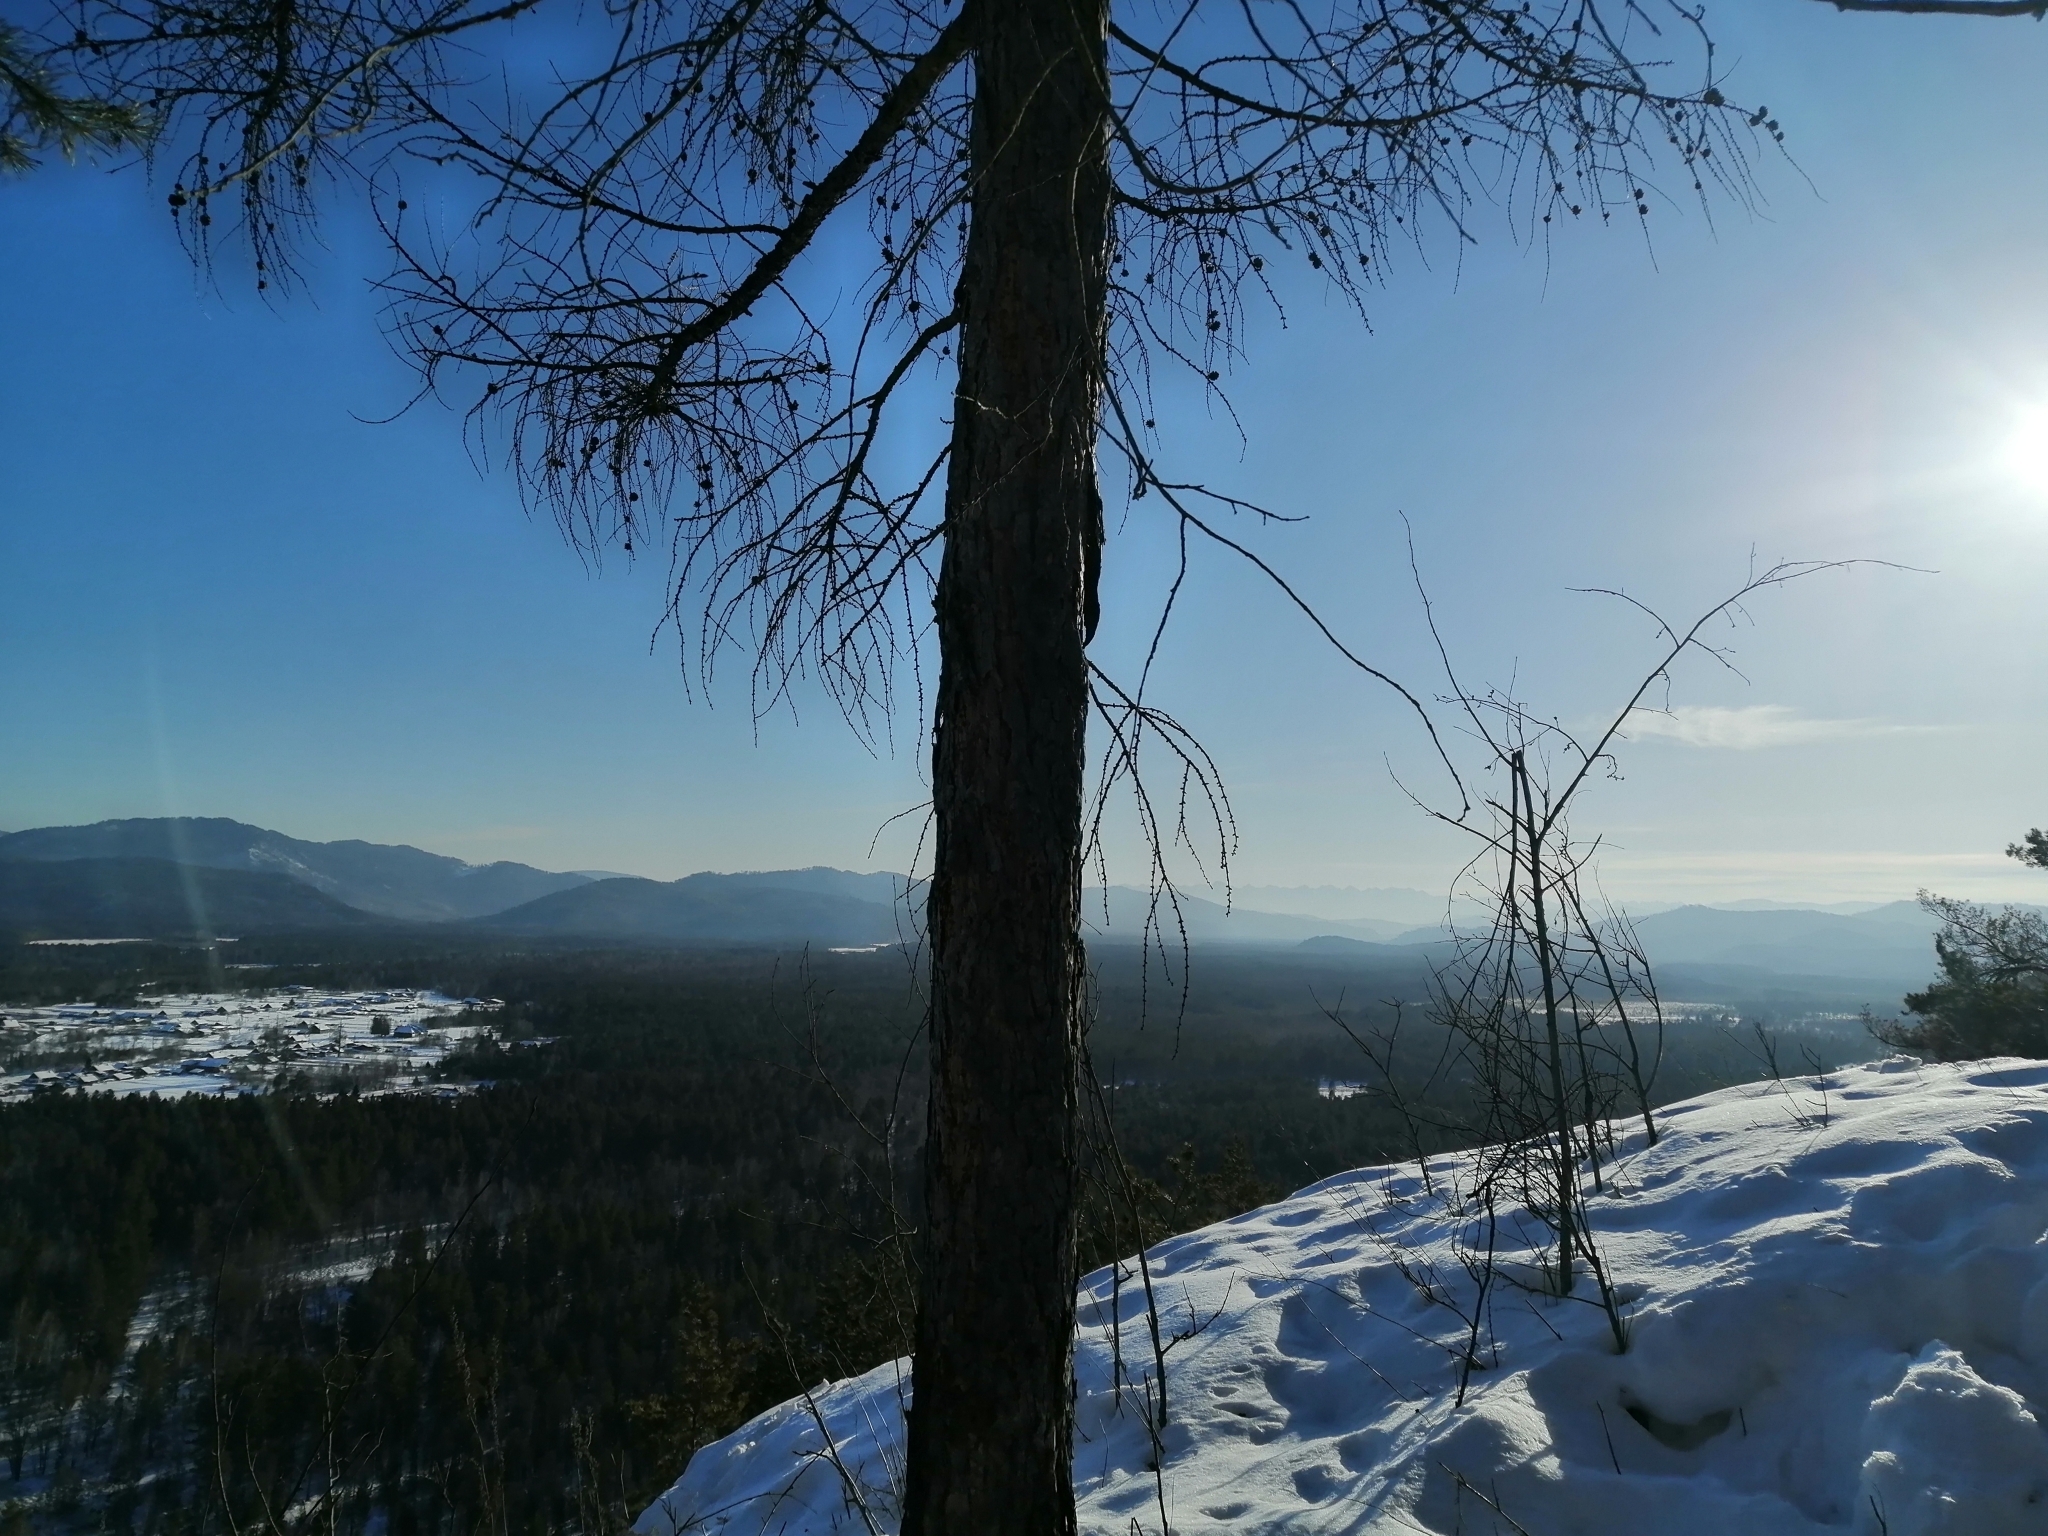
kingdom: Plantae
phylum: Tracheophyta
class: Pinopsida
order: Pinales
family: Pinaceae
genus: Larix
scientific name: Larix sibirica
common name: Siberian larch
